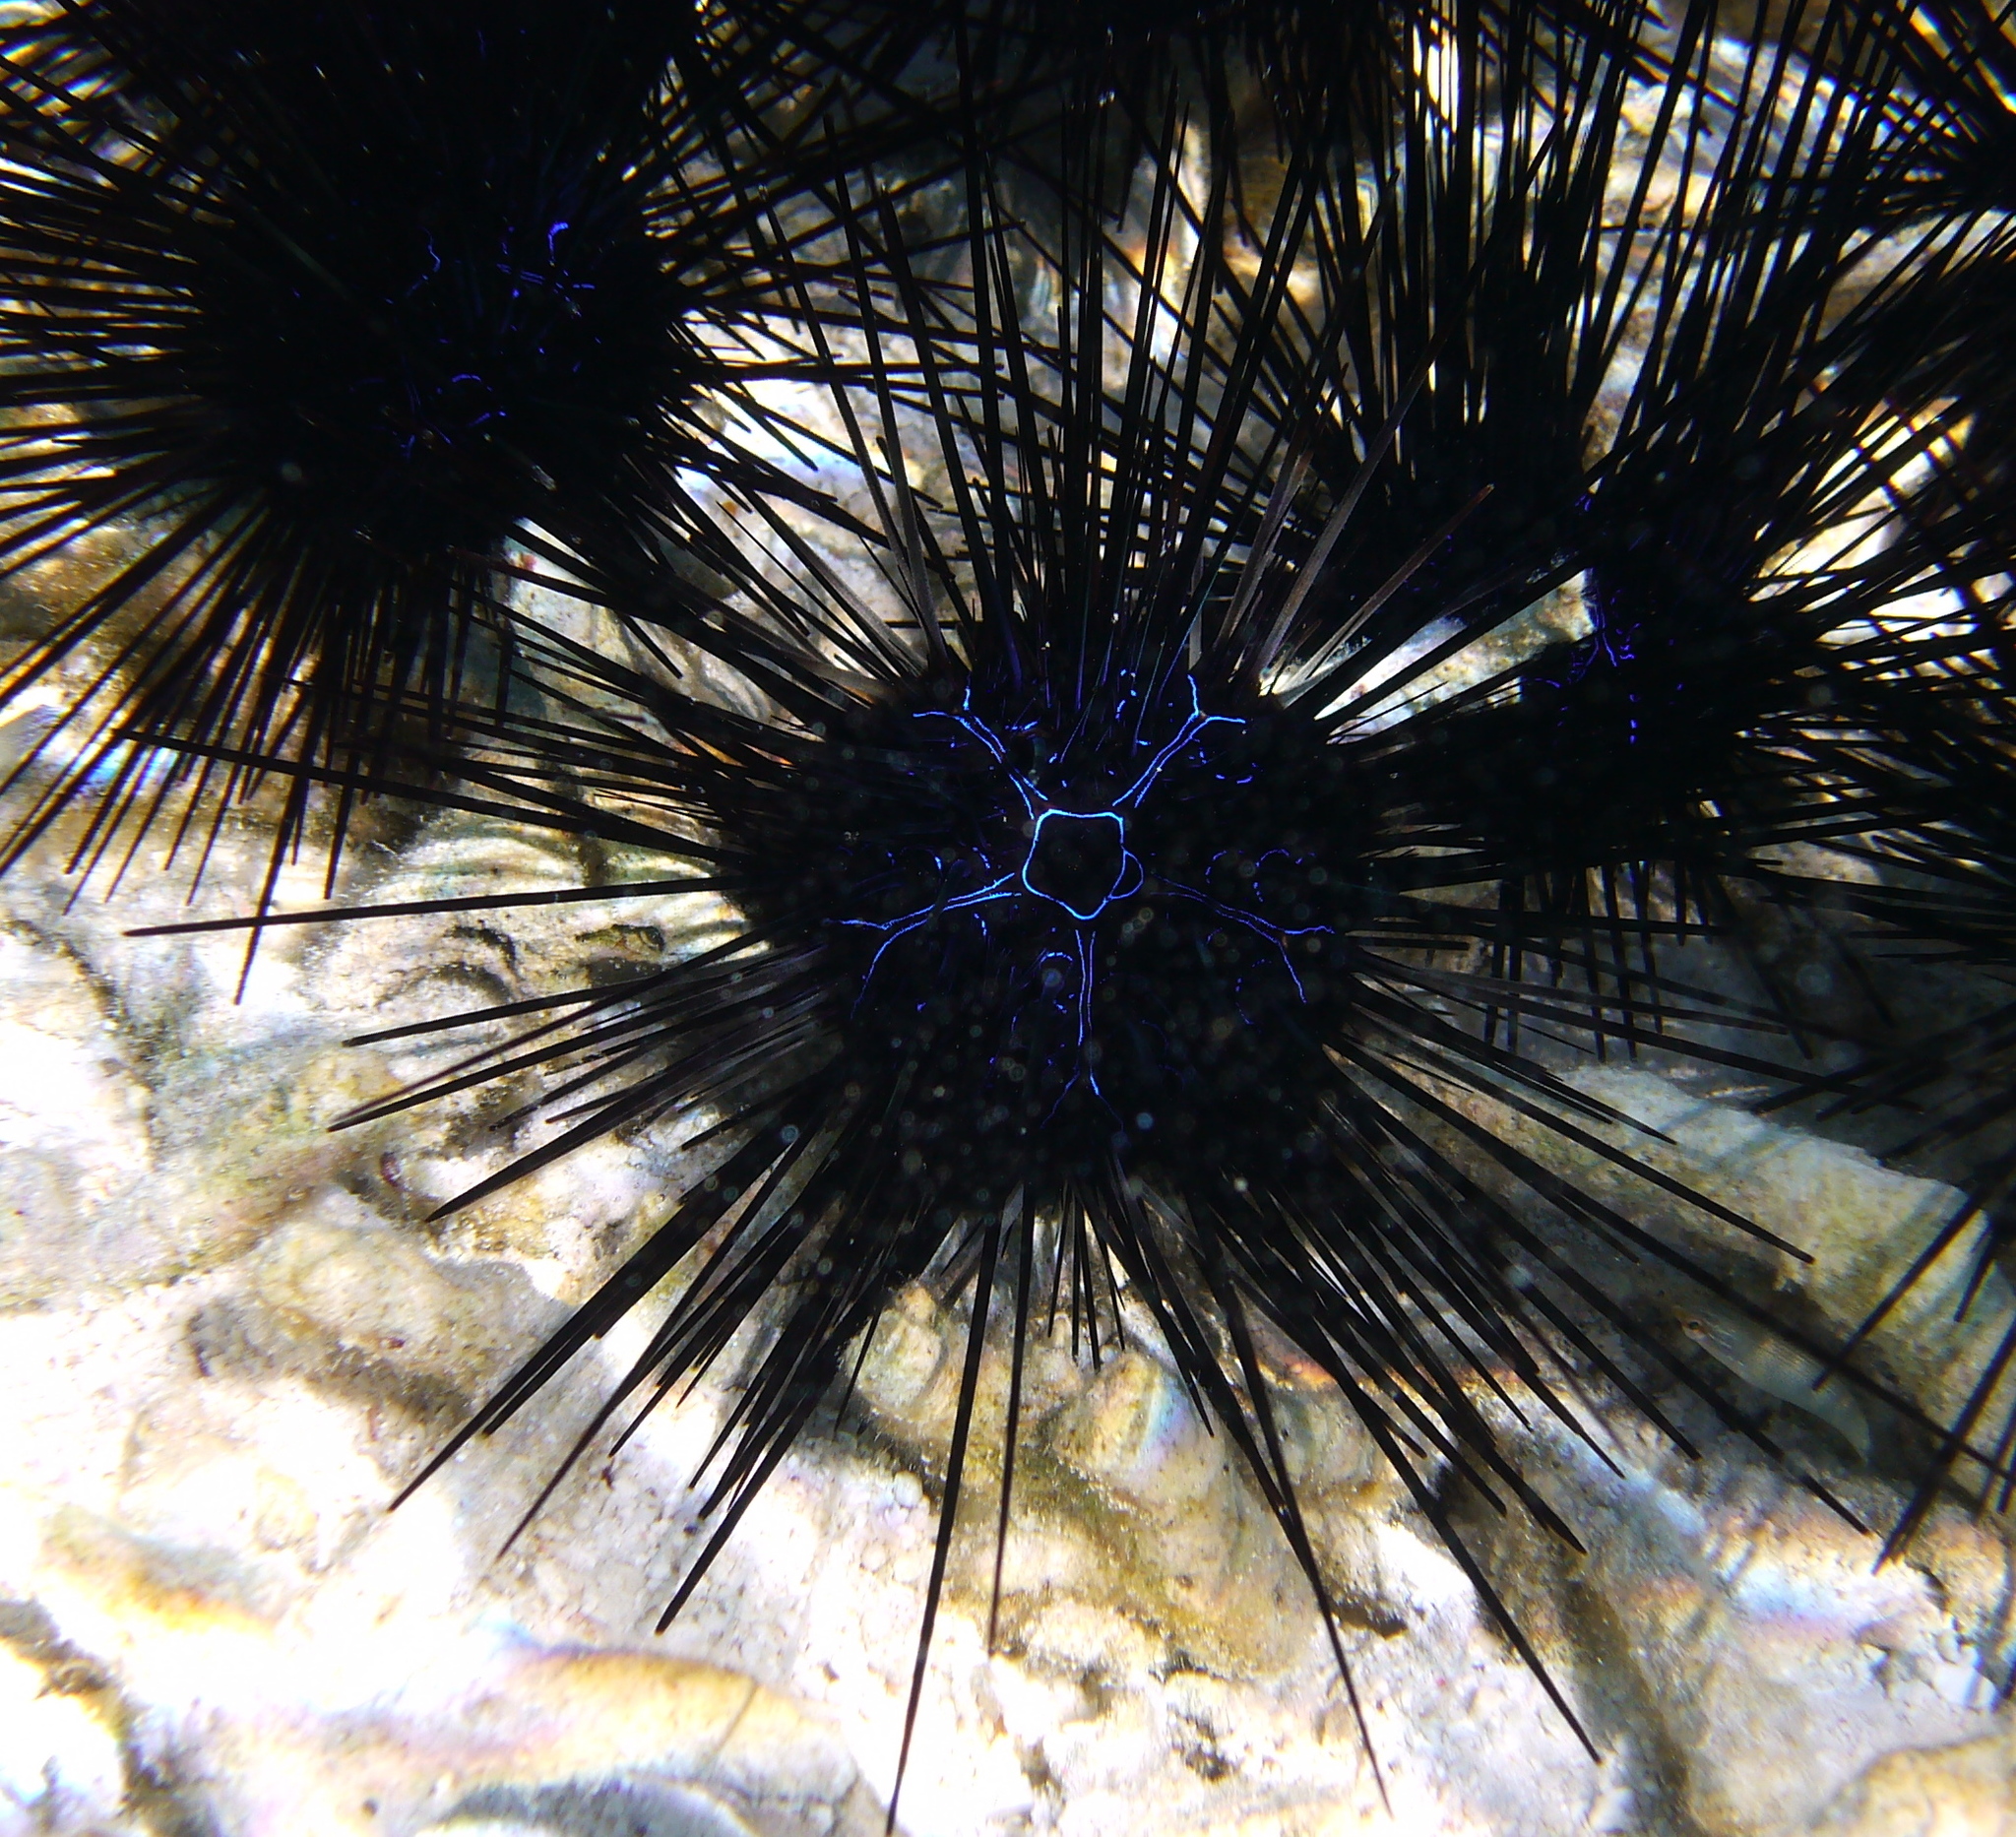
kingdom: Animalia
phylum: Echinodermata
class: Echinoidea
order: Diadematoida
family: Diadematidae
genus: Diadema
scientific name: Diadema savignyi
